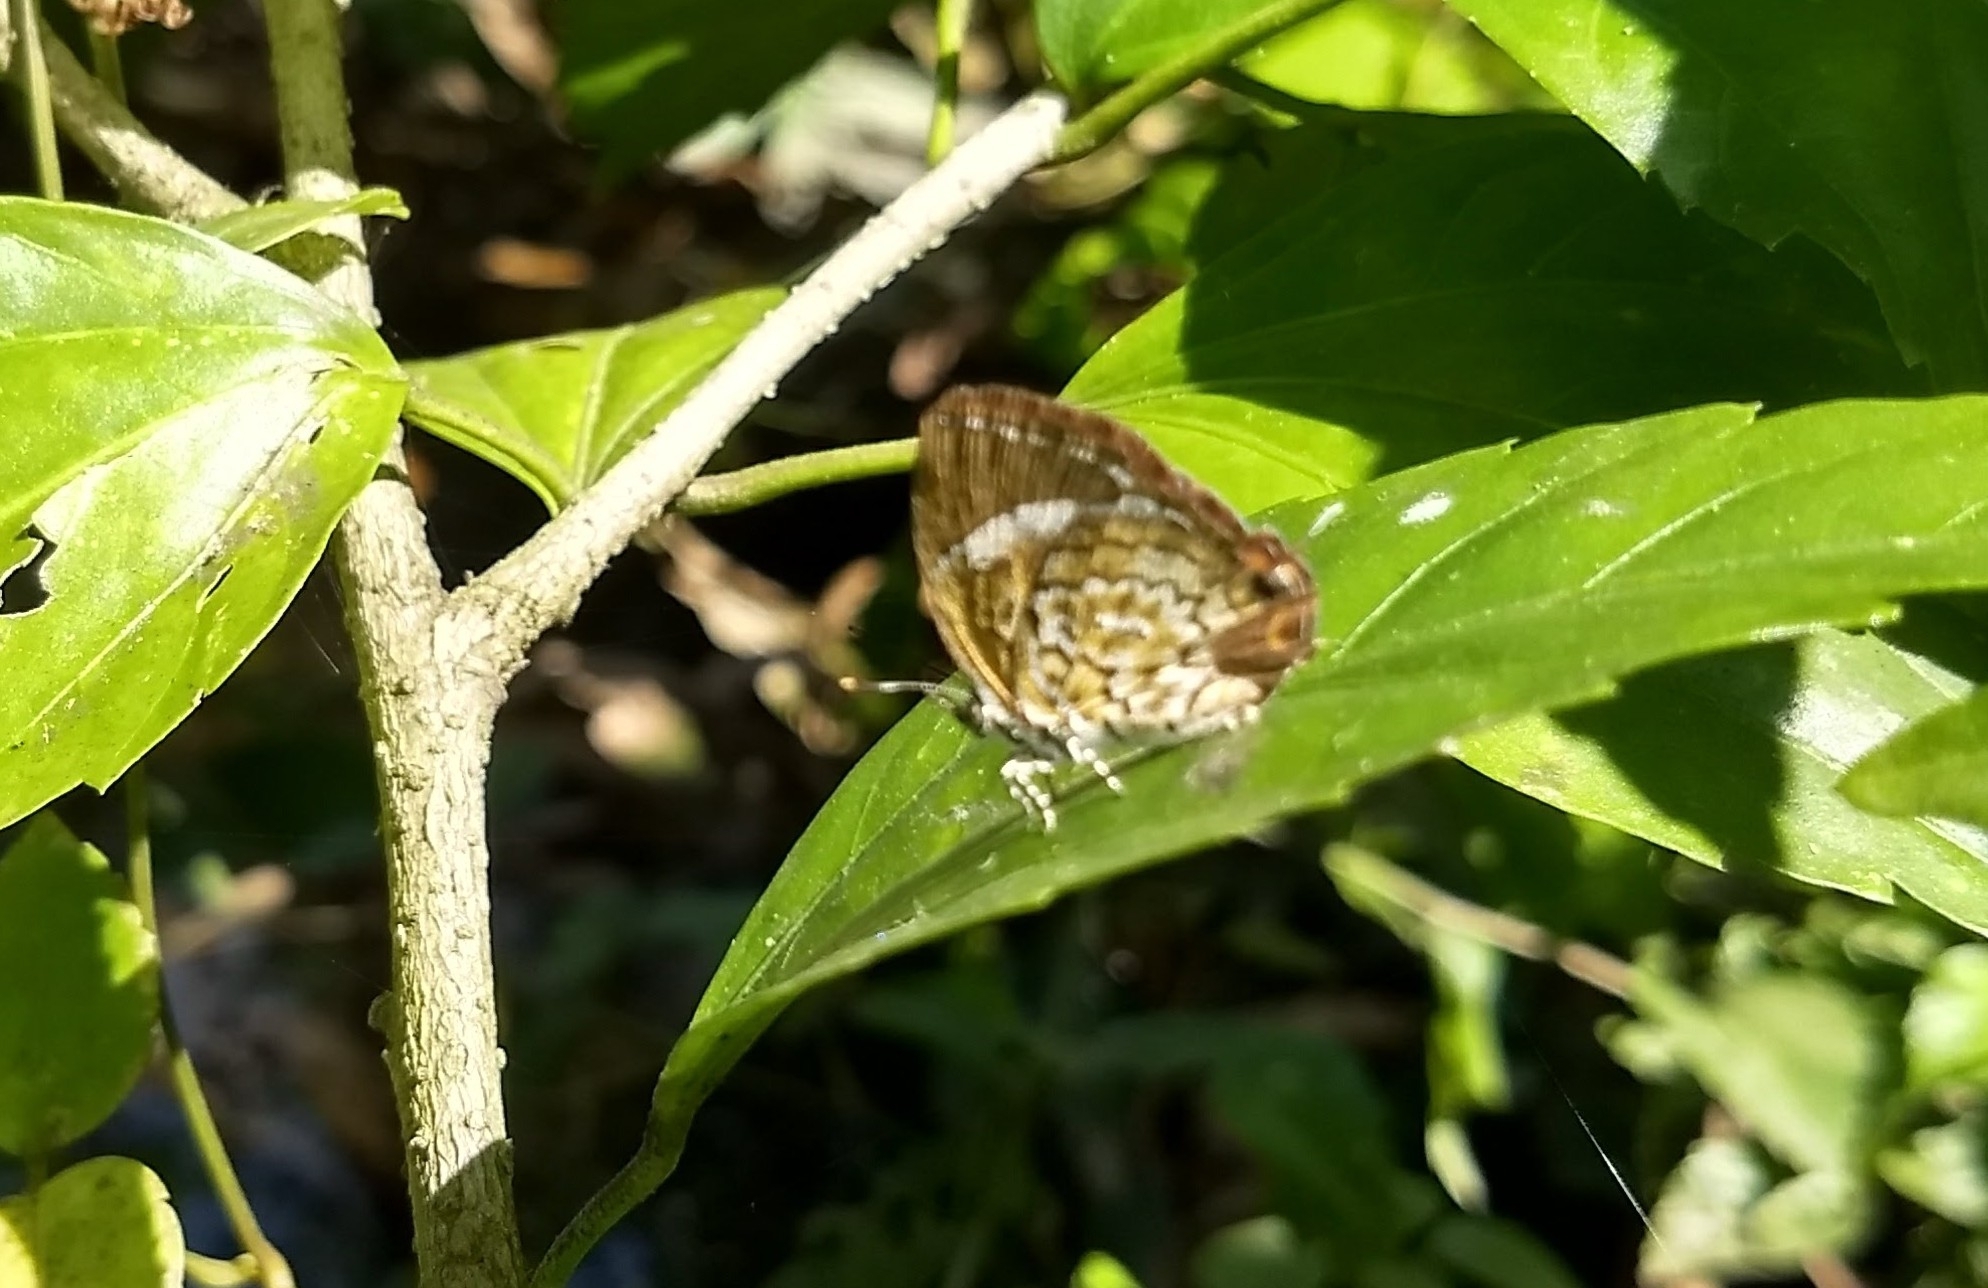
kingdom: Animalia
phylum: Arthropoda
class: Insecta
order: Lepidoptera
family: Lycaenidae
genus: Rathinda
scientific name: Rathinda amor
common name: Monkey puzzle
